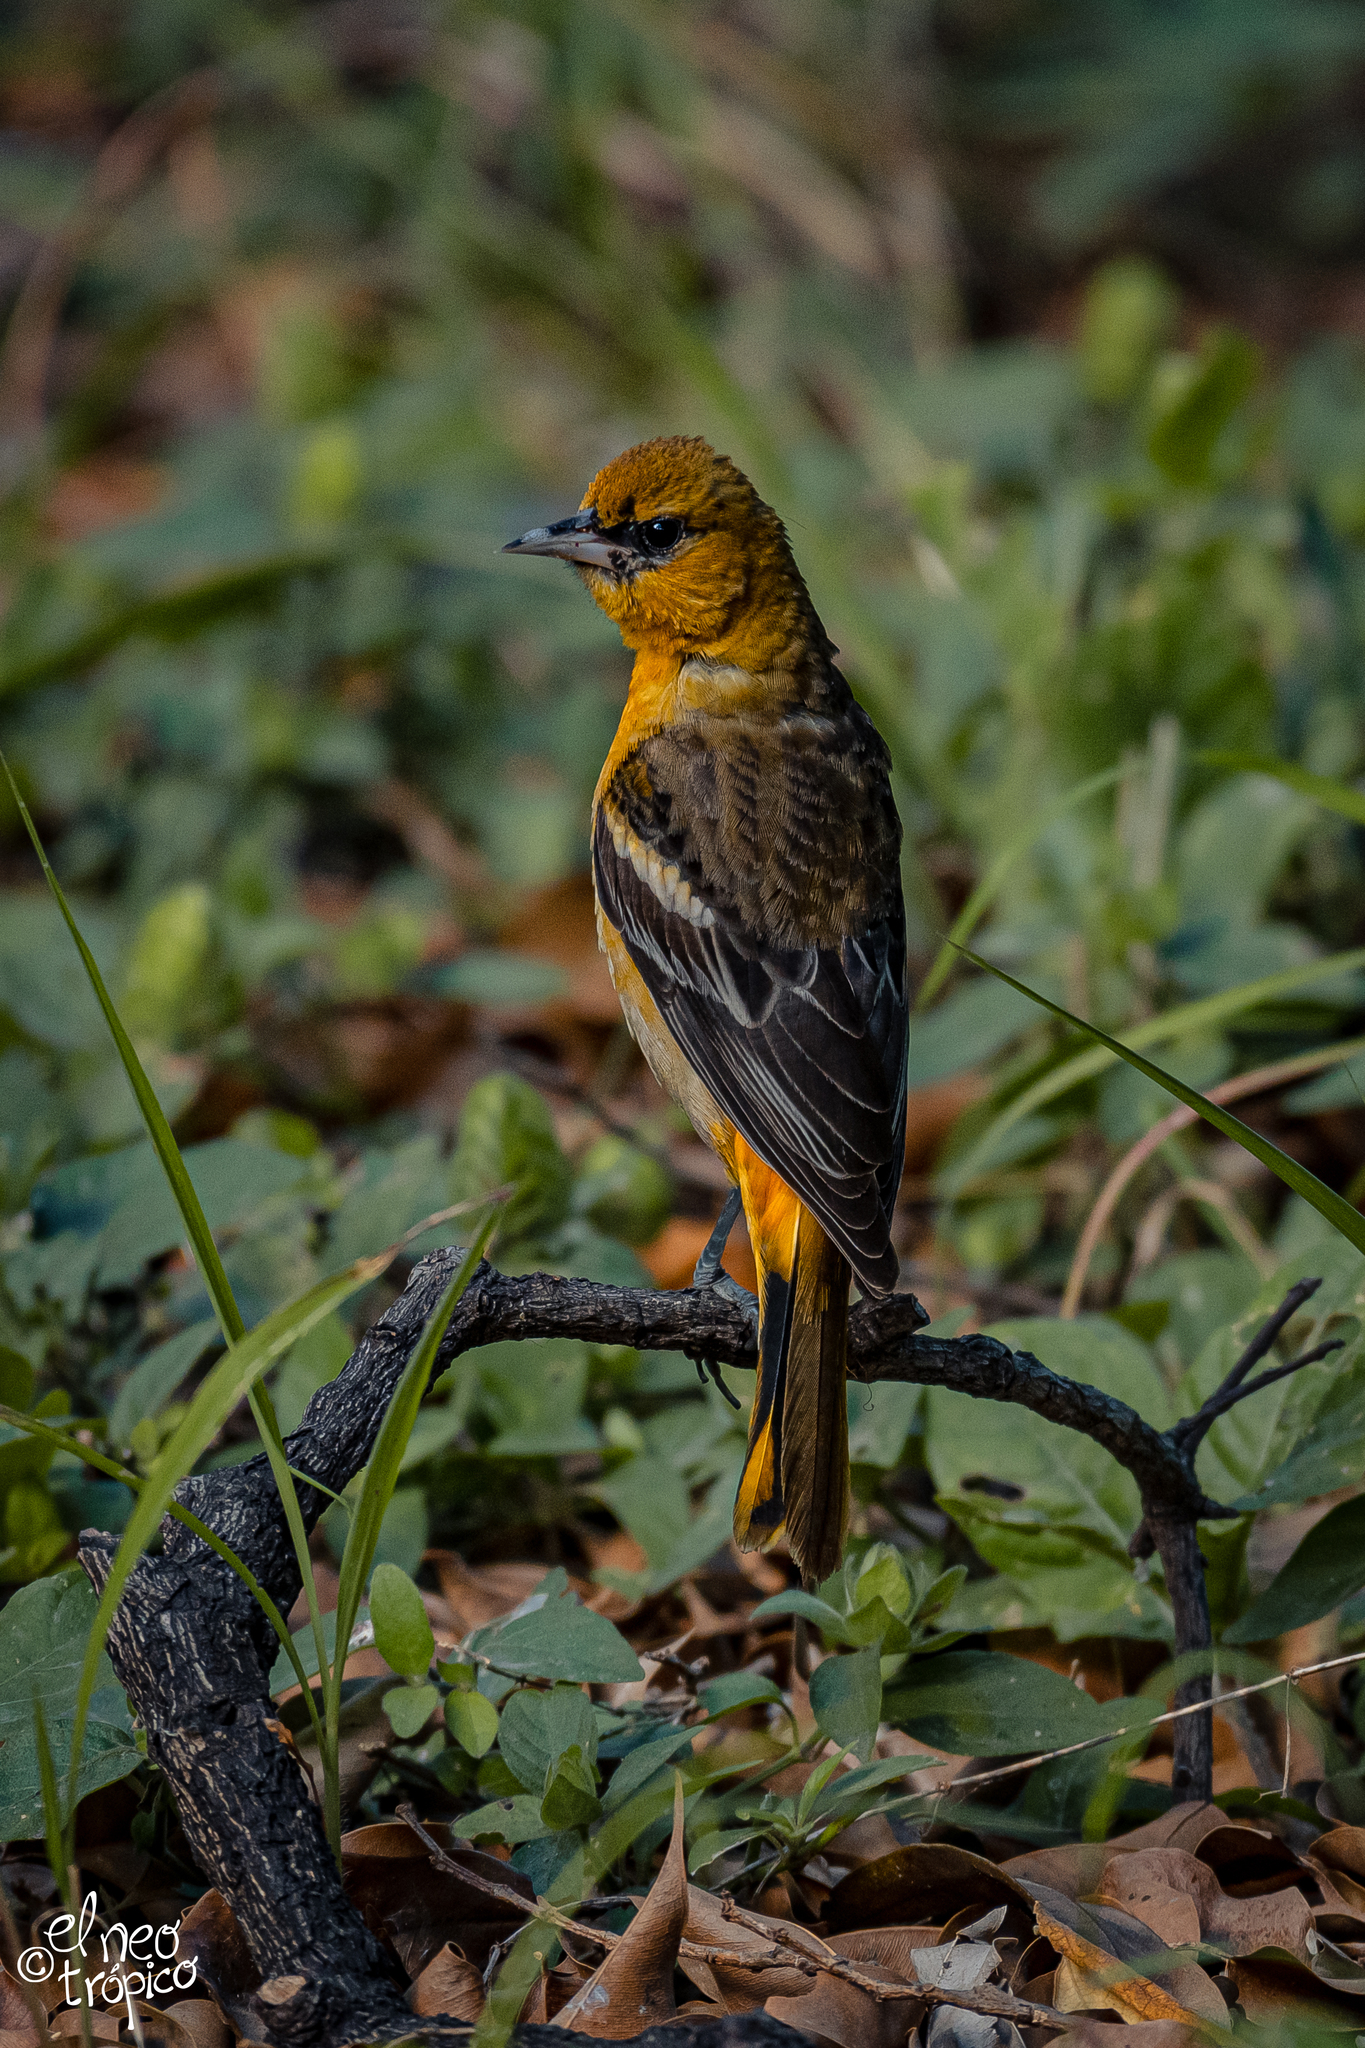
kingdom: Animalia
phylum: Chordata
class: Aves
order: Passeriformes
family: Icteridae
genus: Icterus
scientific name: Icterus galbula
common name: Baltimore oriole
